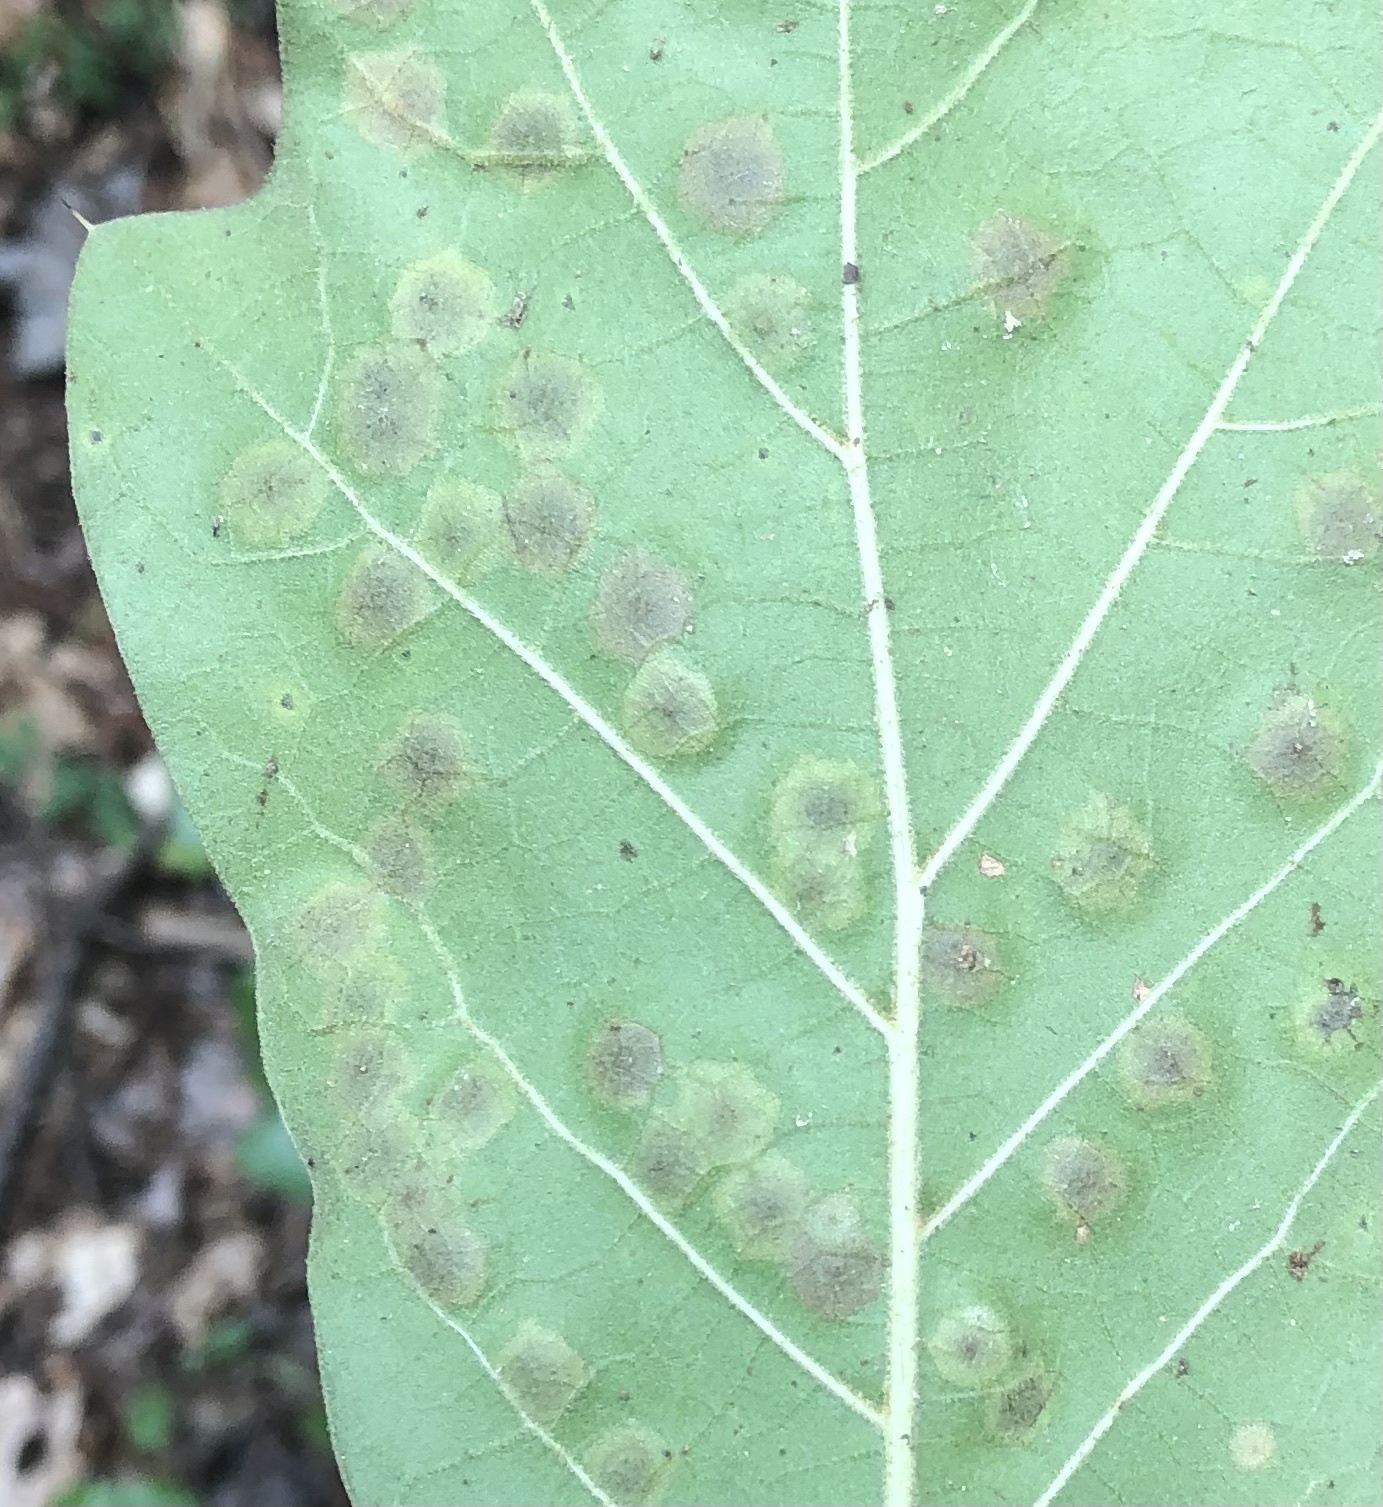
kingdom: Animalia
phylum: Arthropoda
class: Insecta
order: Diptera
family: Cecidomyiidae
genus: Polystepha
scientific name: Polystepha pustuloides
